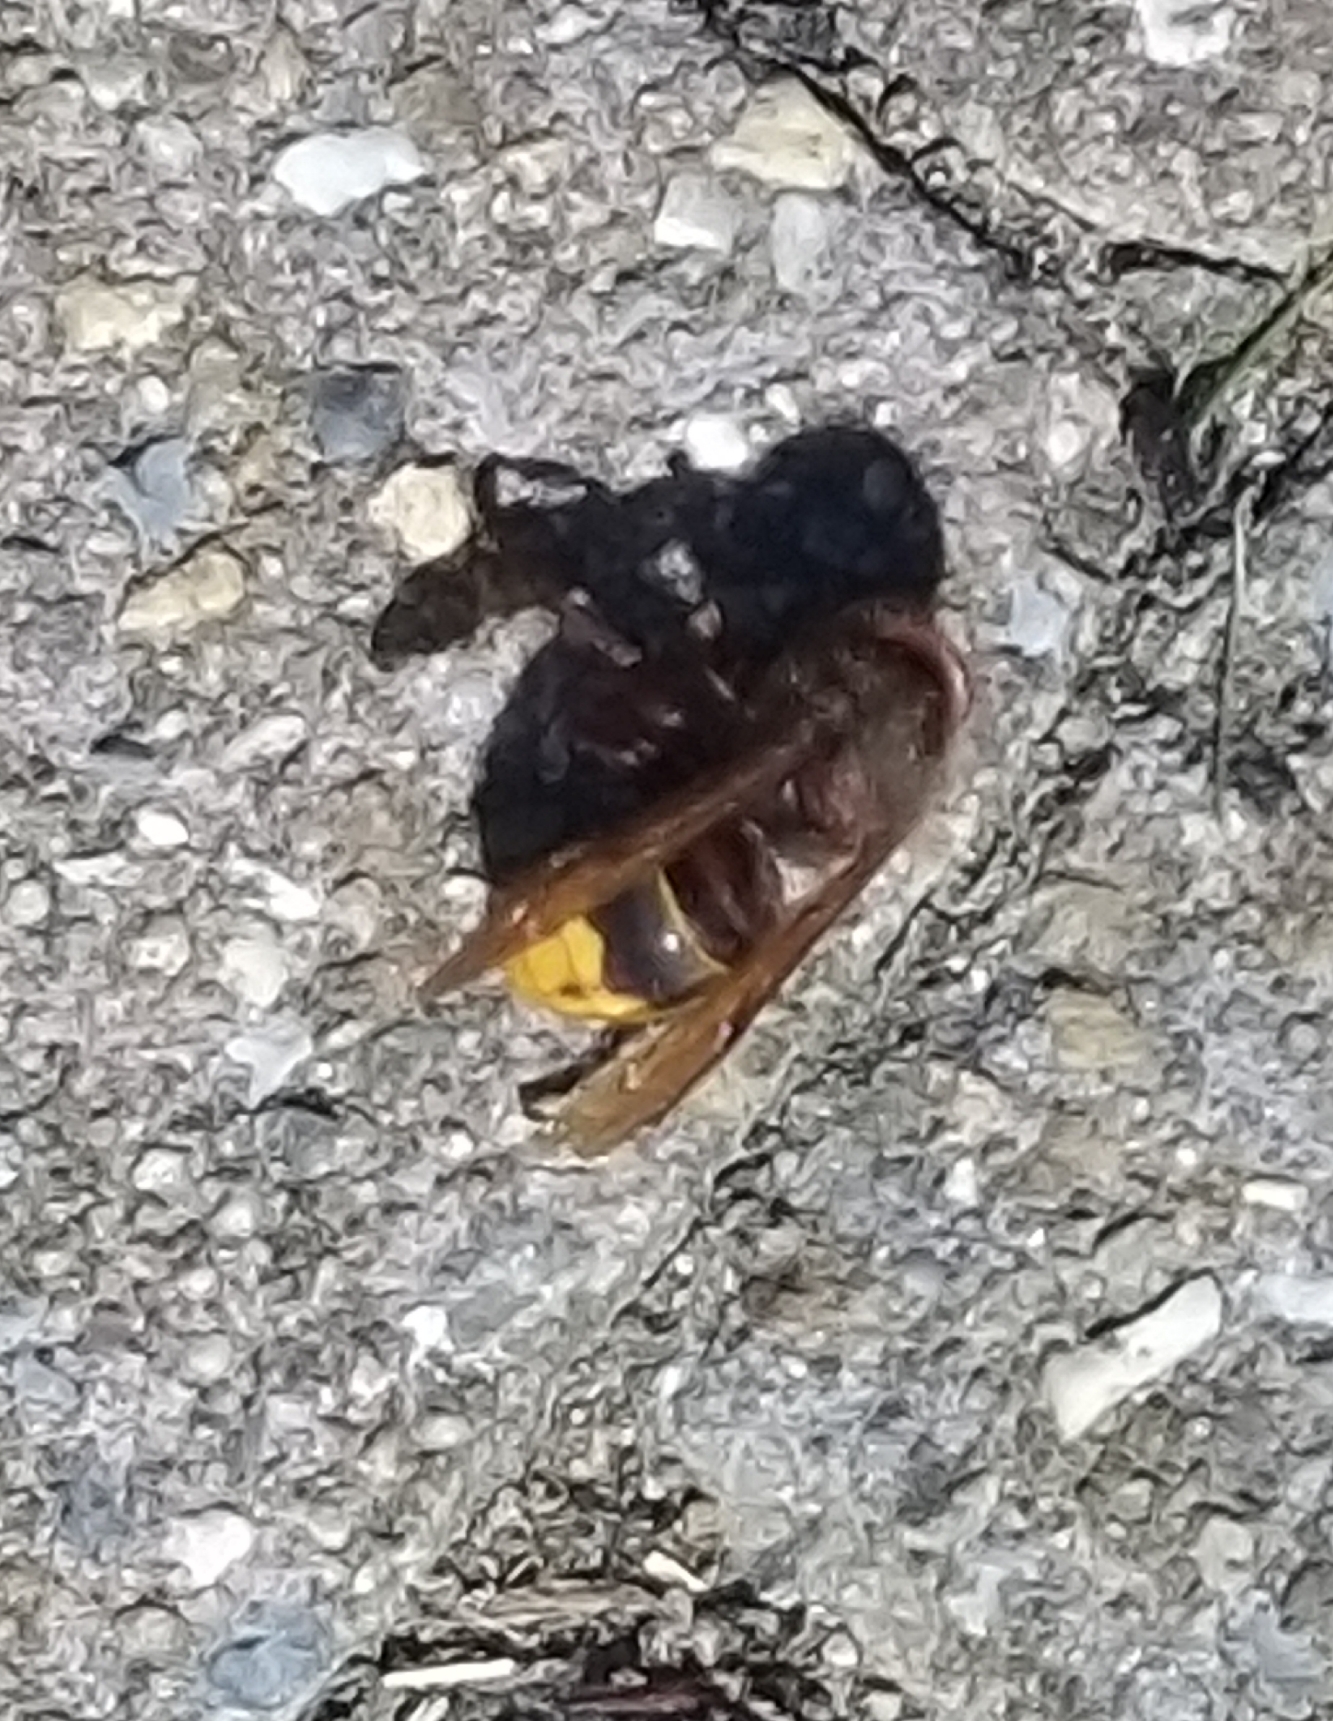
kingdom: Animalia
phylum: Arthropoda
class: Insecta
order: Hymenoptera
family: Vespidae
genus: Vespa
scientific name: Vespa crabro
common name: Hornet
